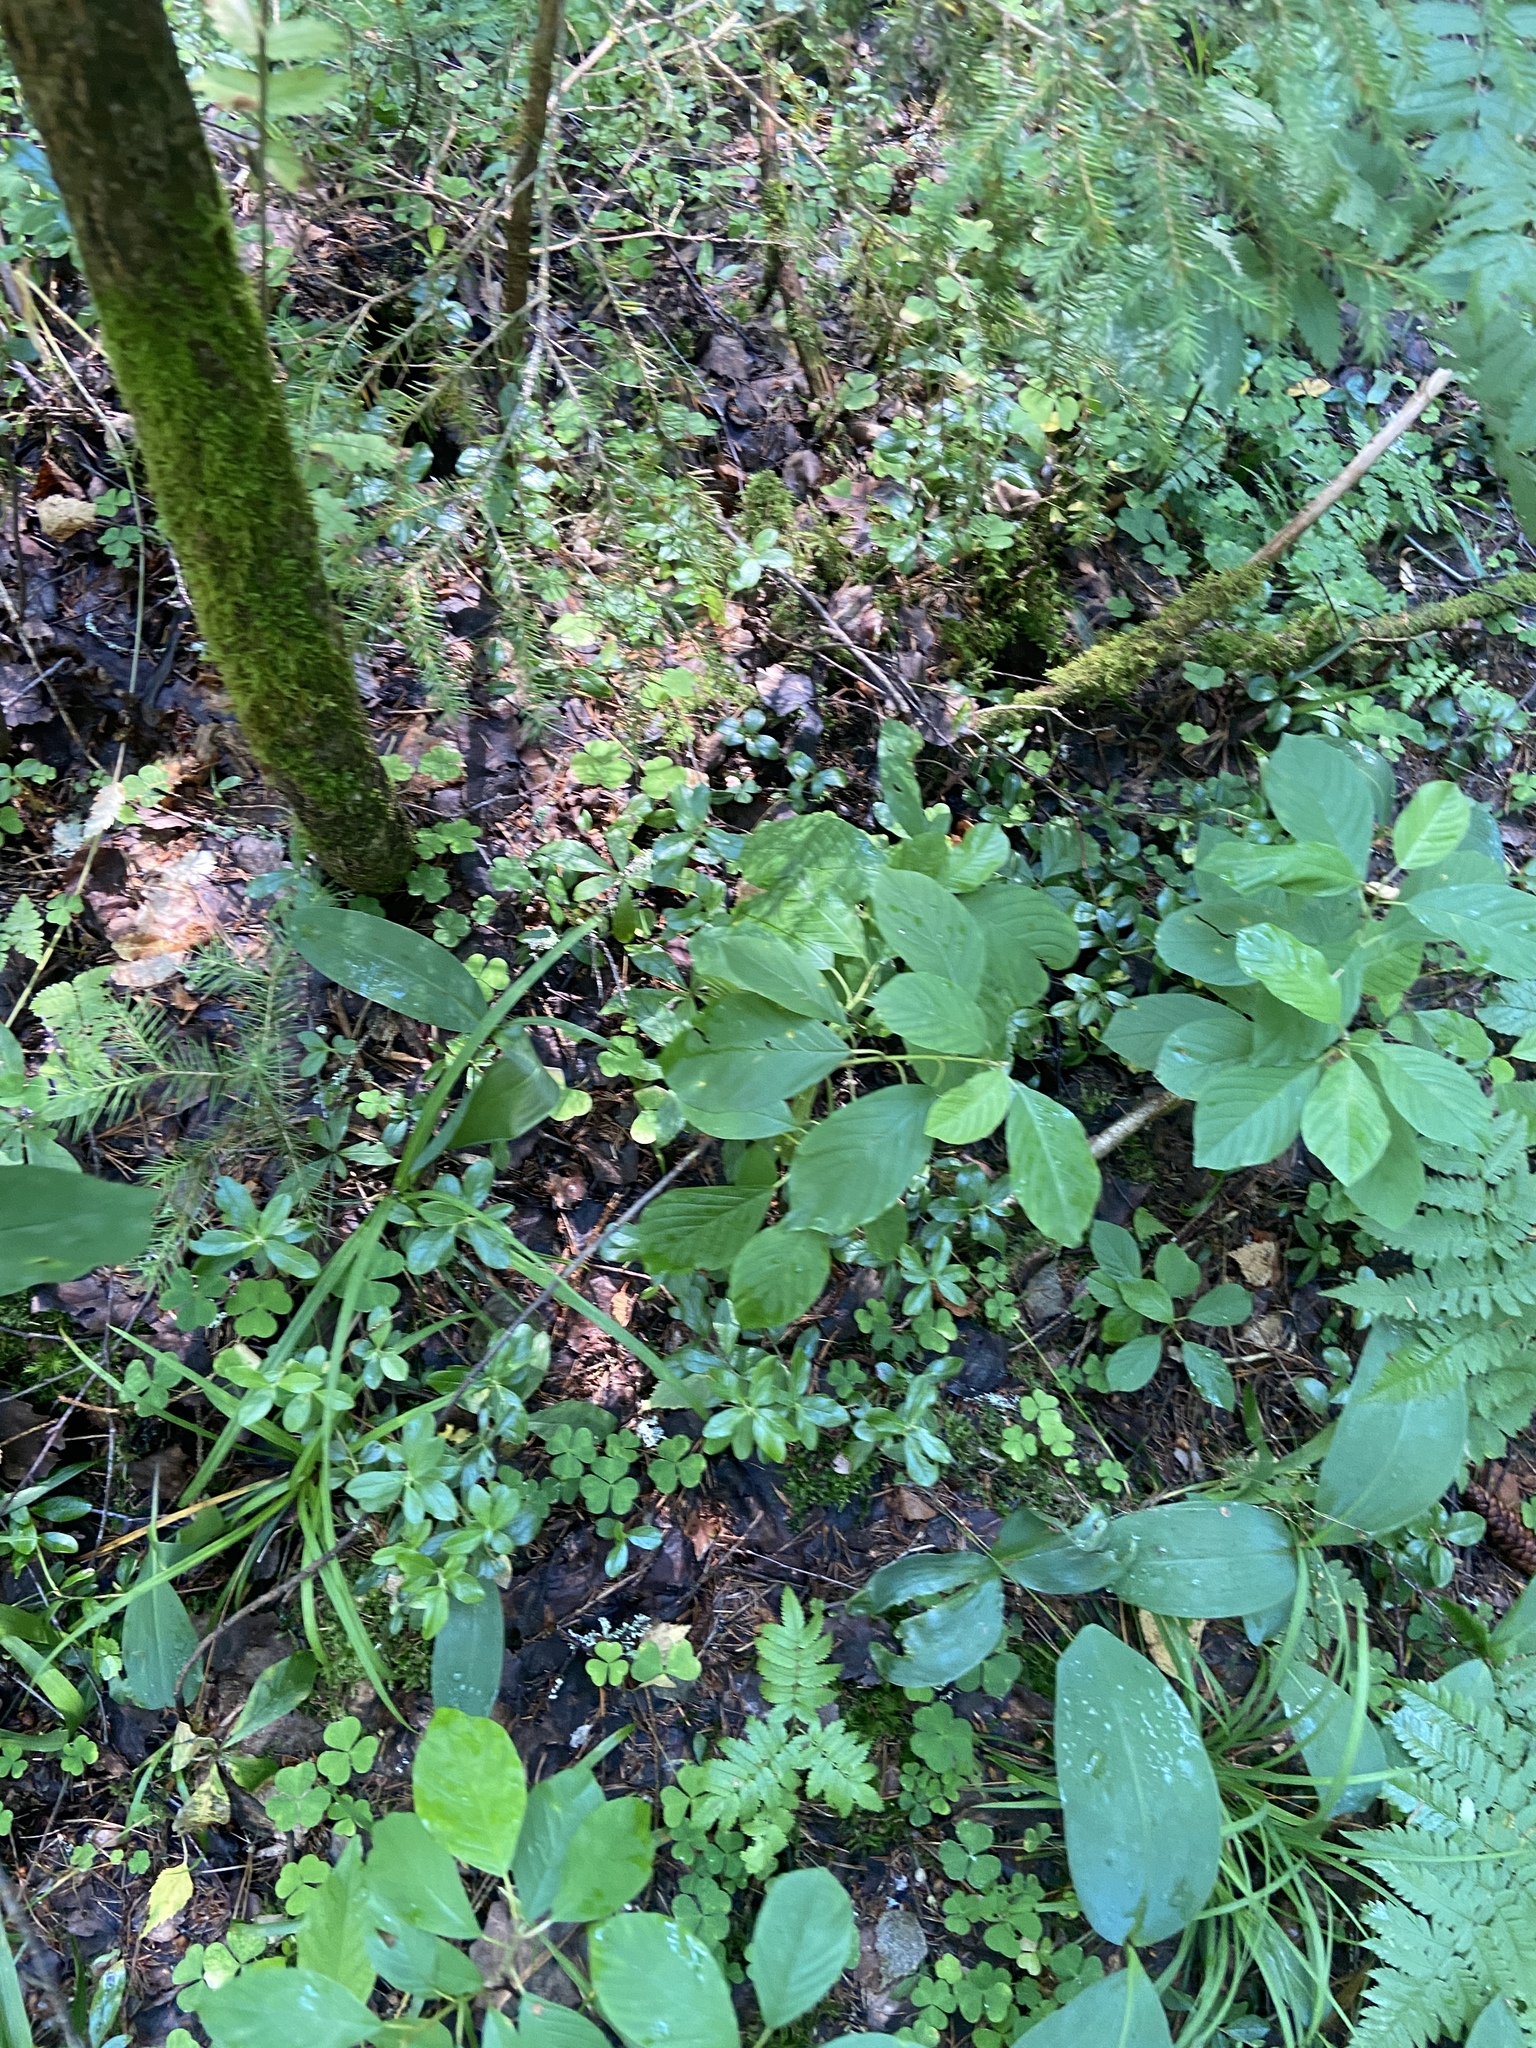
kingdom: Plantae
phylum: Tracheophyta
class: Magnoliopsida
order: Rosales
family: Rhamnaceae
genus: Frangula
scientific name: Frangula alnus
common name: Alder buckthorn
